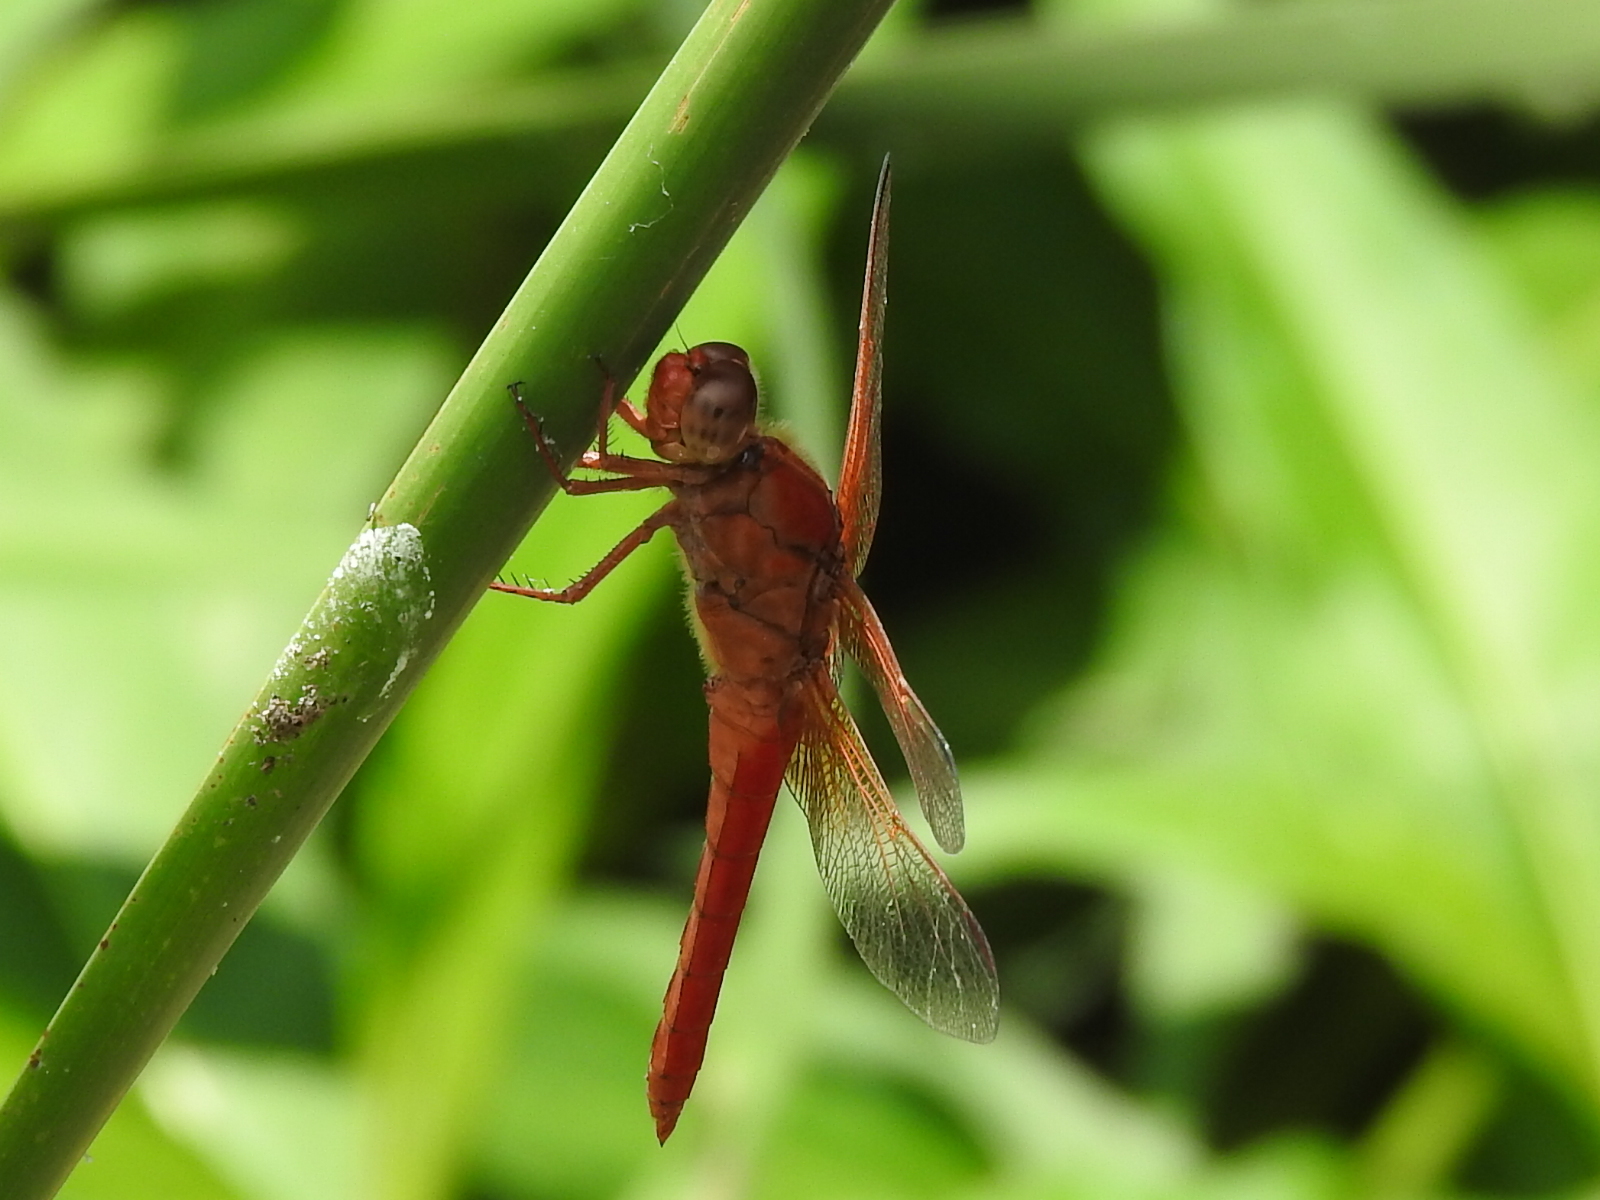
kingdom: Animalia
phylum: Arthropoda
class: Insecta
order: Odonata
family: Libellulidae
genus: Libellula
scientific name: Libellula croceipennis
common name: Neon skimmer
